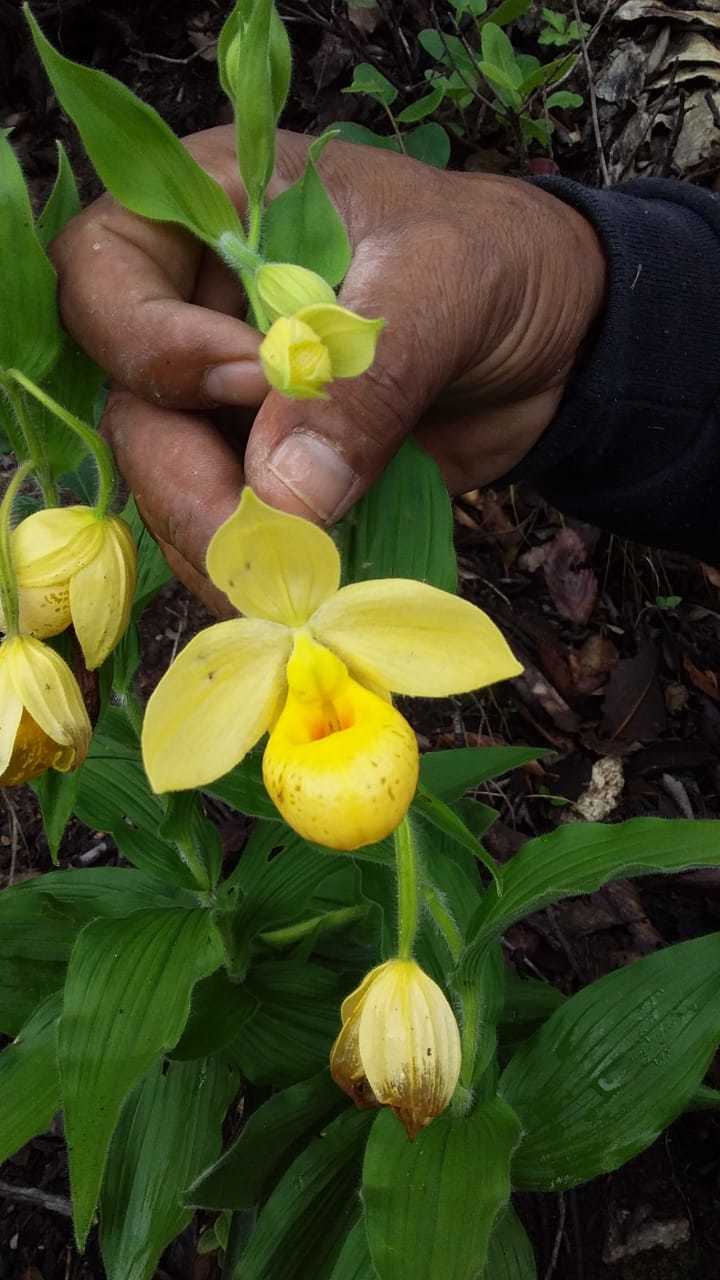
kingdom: Plantae
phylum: Tracheophyta
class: Liliopsida
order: Asparagales
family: Orchidaceae
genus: Cypripedium
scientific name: Cypripedium molle
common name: Soft cypripedium
